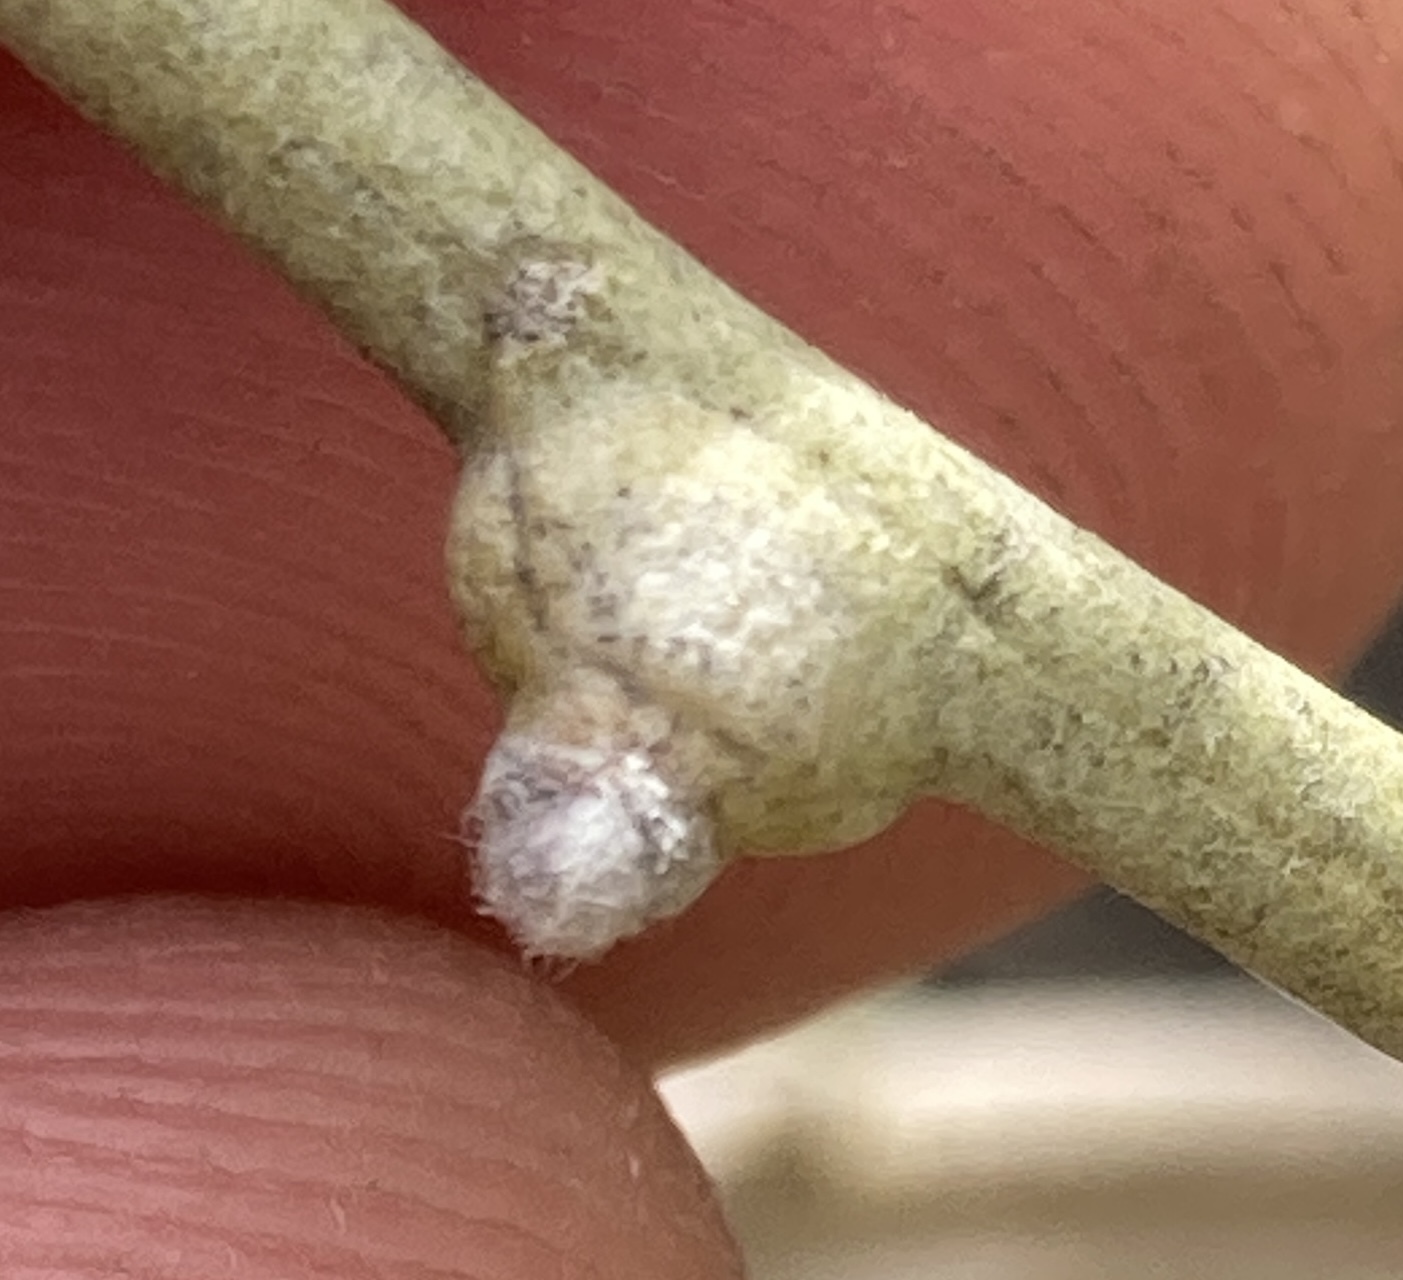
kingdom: Animalia
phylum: Arthropoda
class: Insecta
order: Diptera
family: Cecidomyiidae
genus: Rhopalomyia
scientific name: Rhopalomyia chrysothamni
